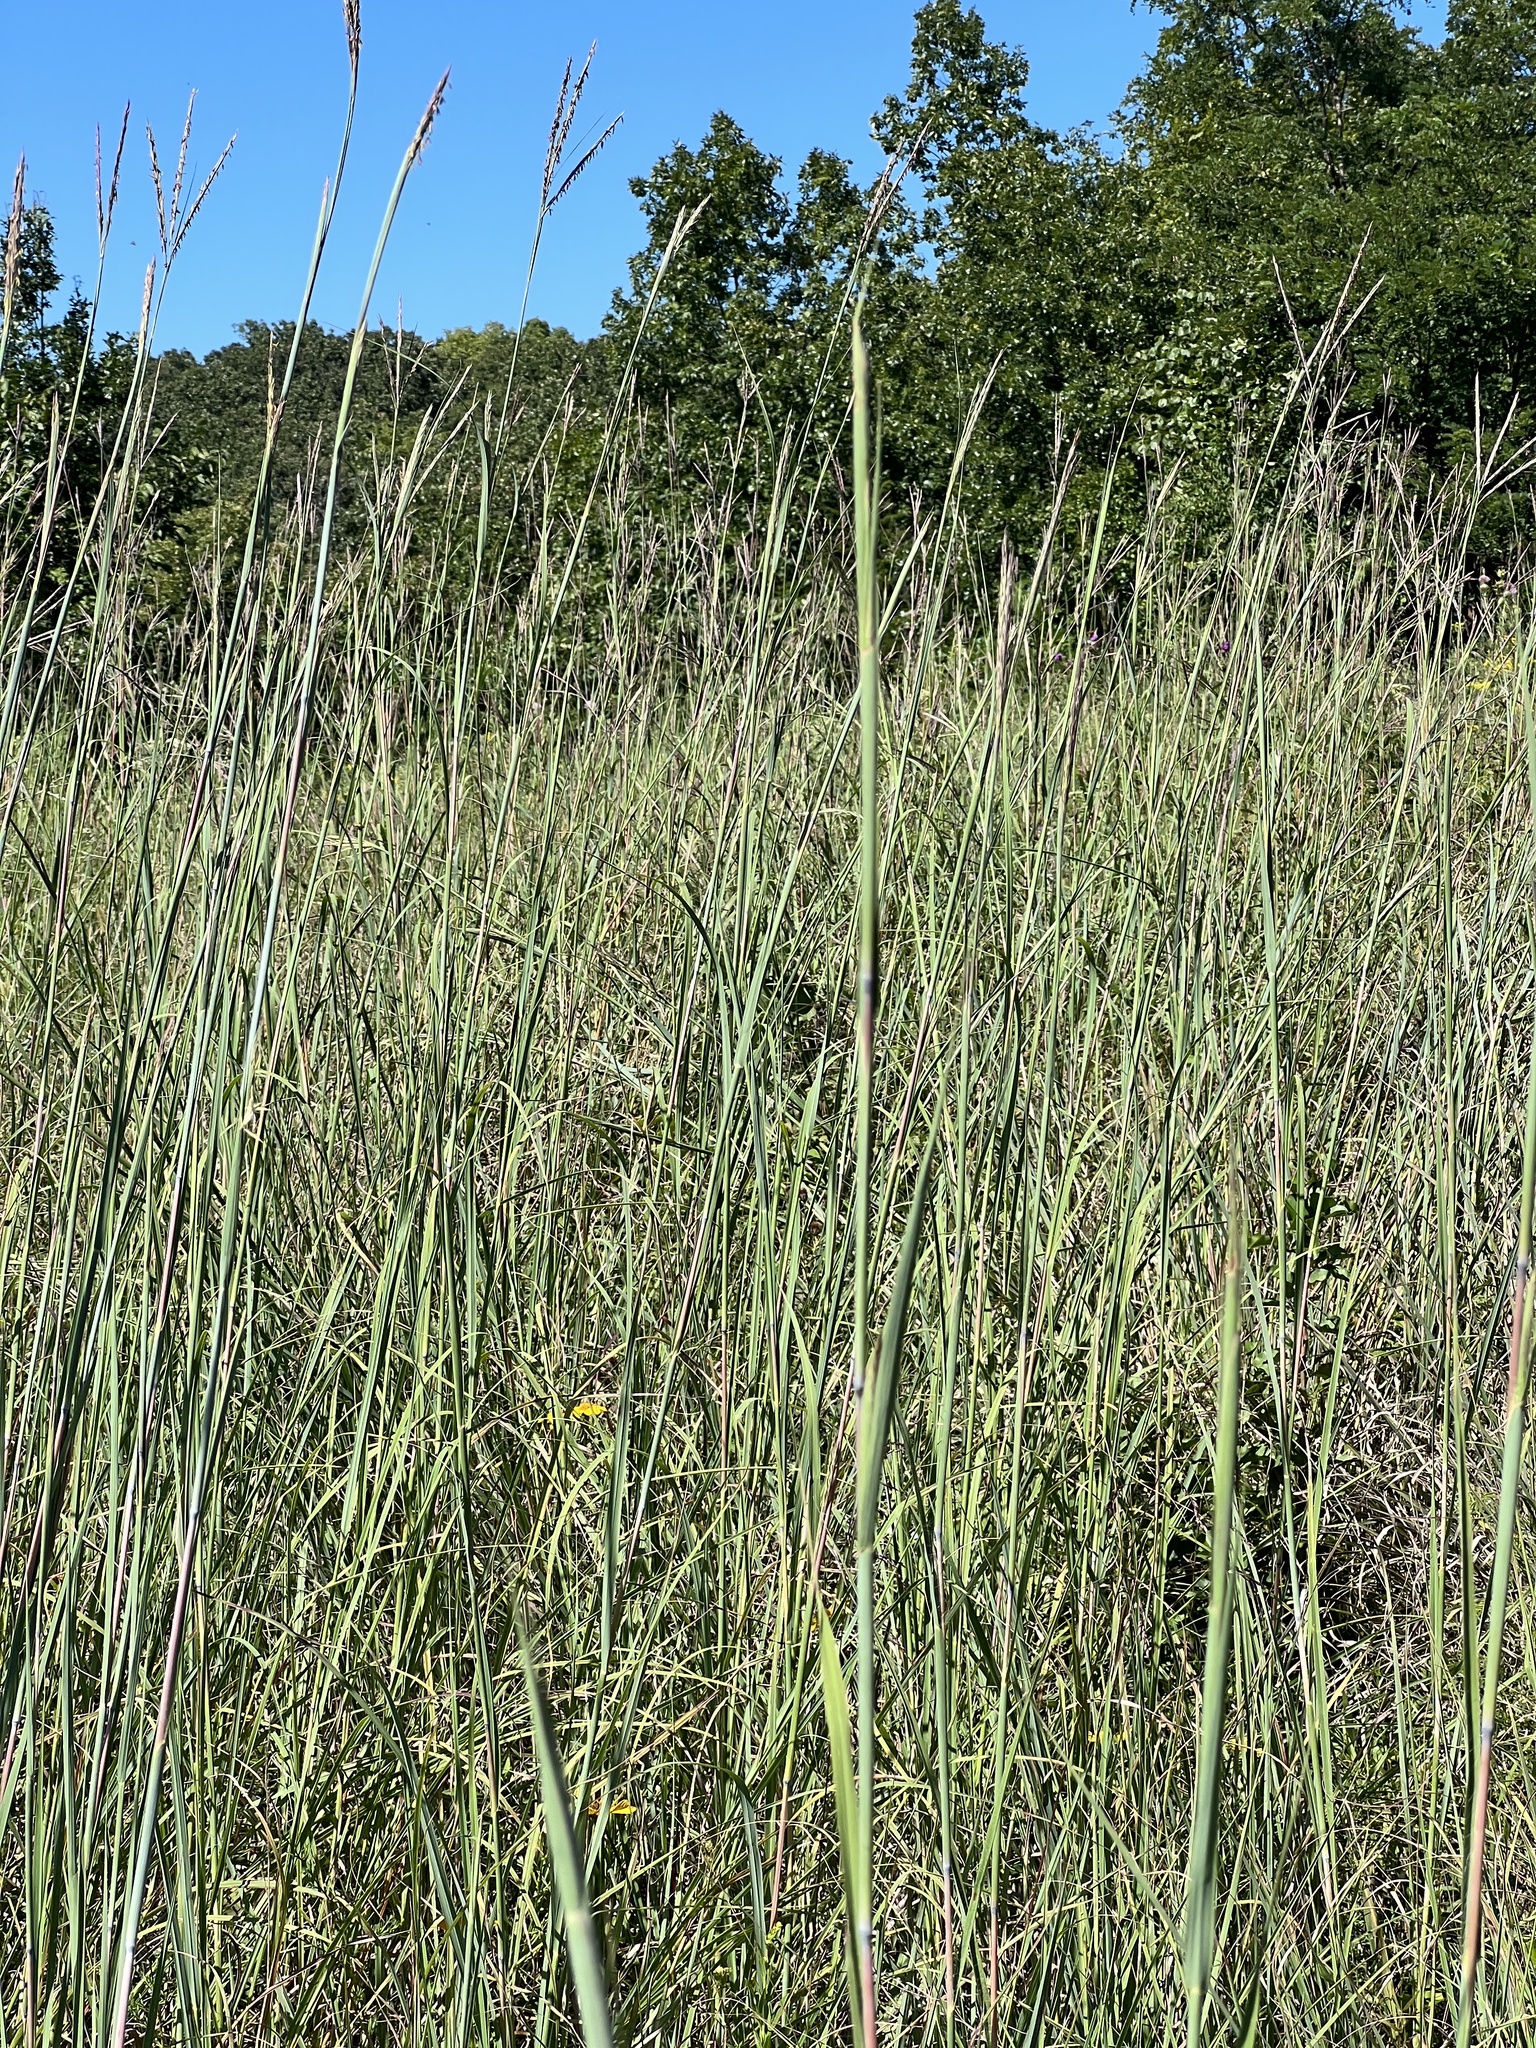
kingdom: Plantae
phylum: Tracheophyta
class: Liliopsida
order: Poales
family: Poaceae
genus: Andropogon
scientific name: Andropogon gerardi
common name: Big bluestem
